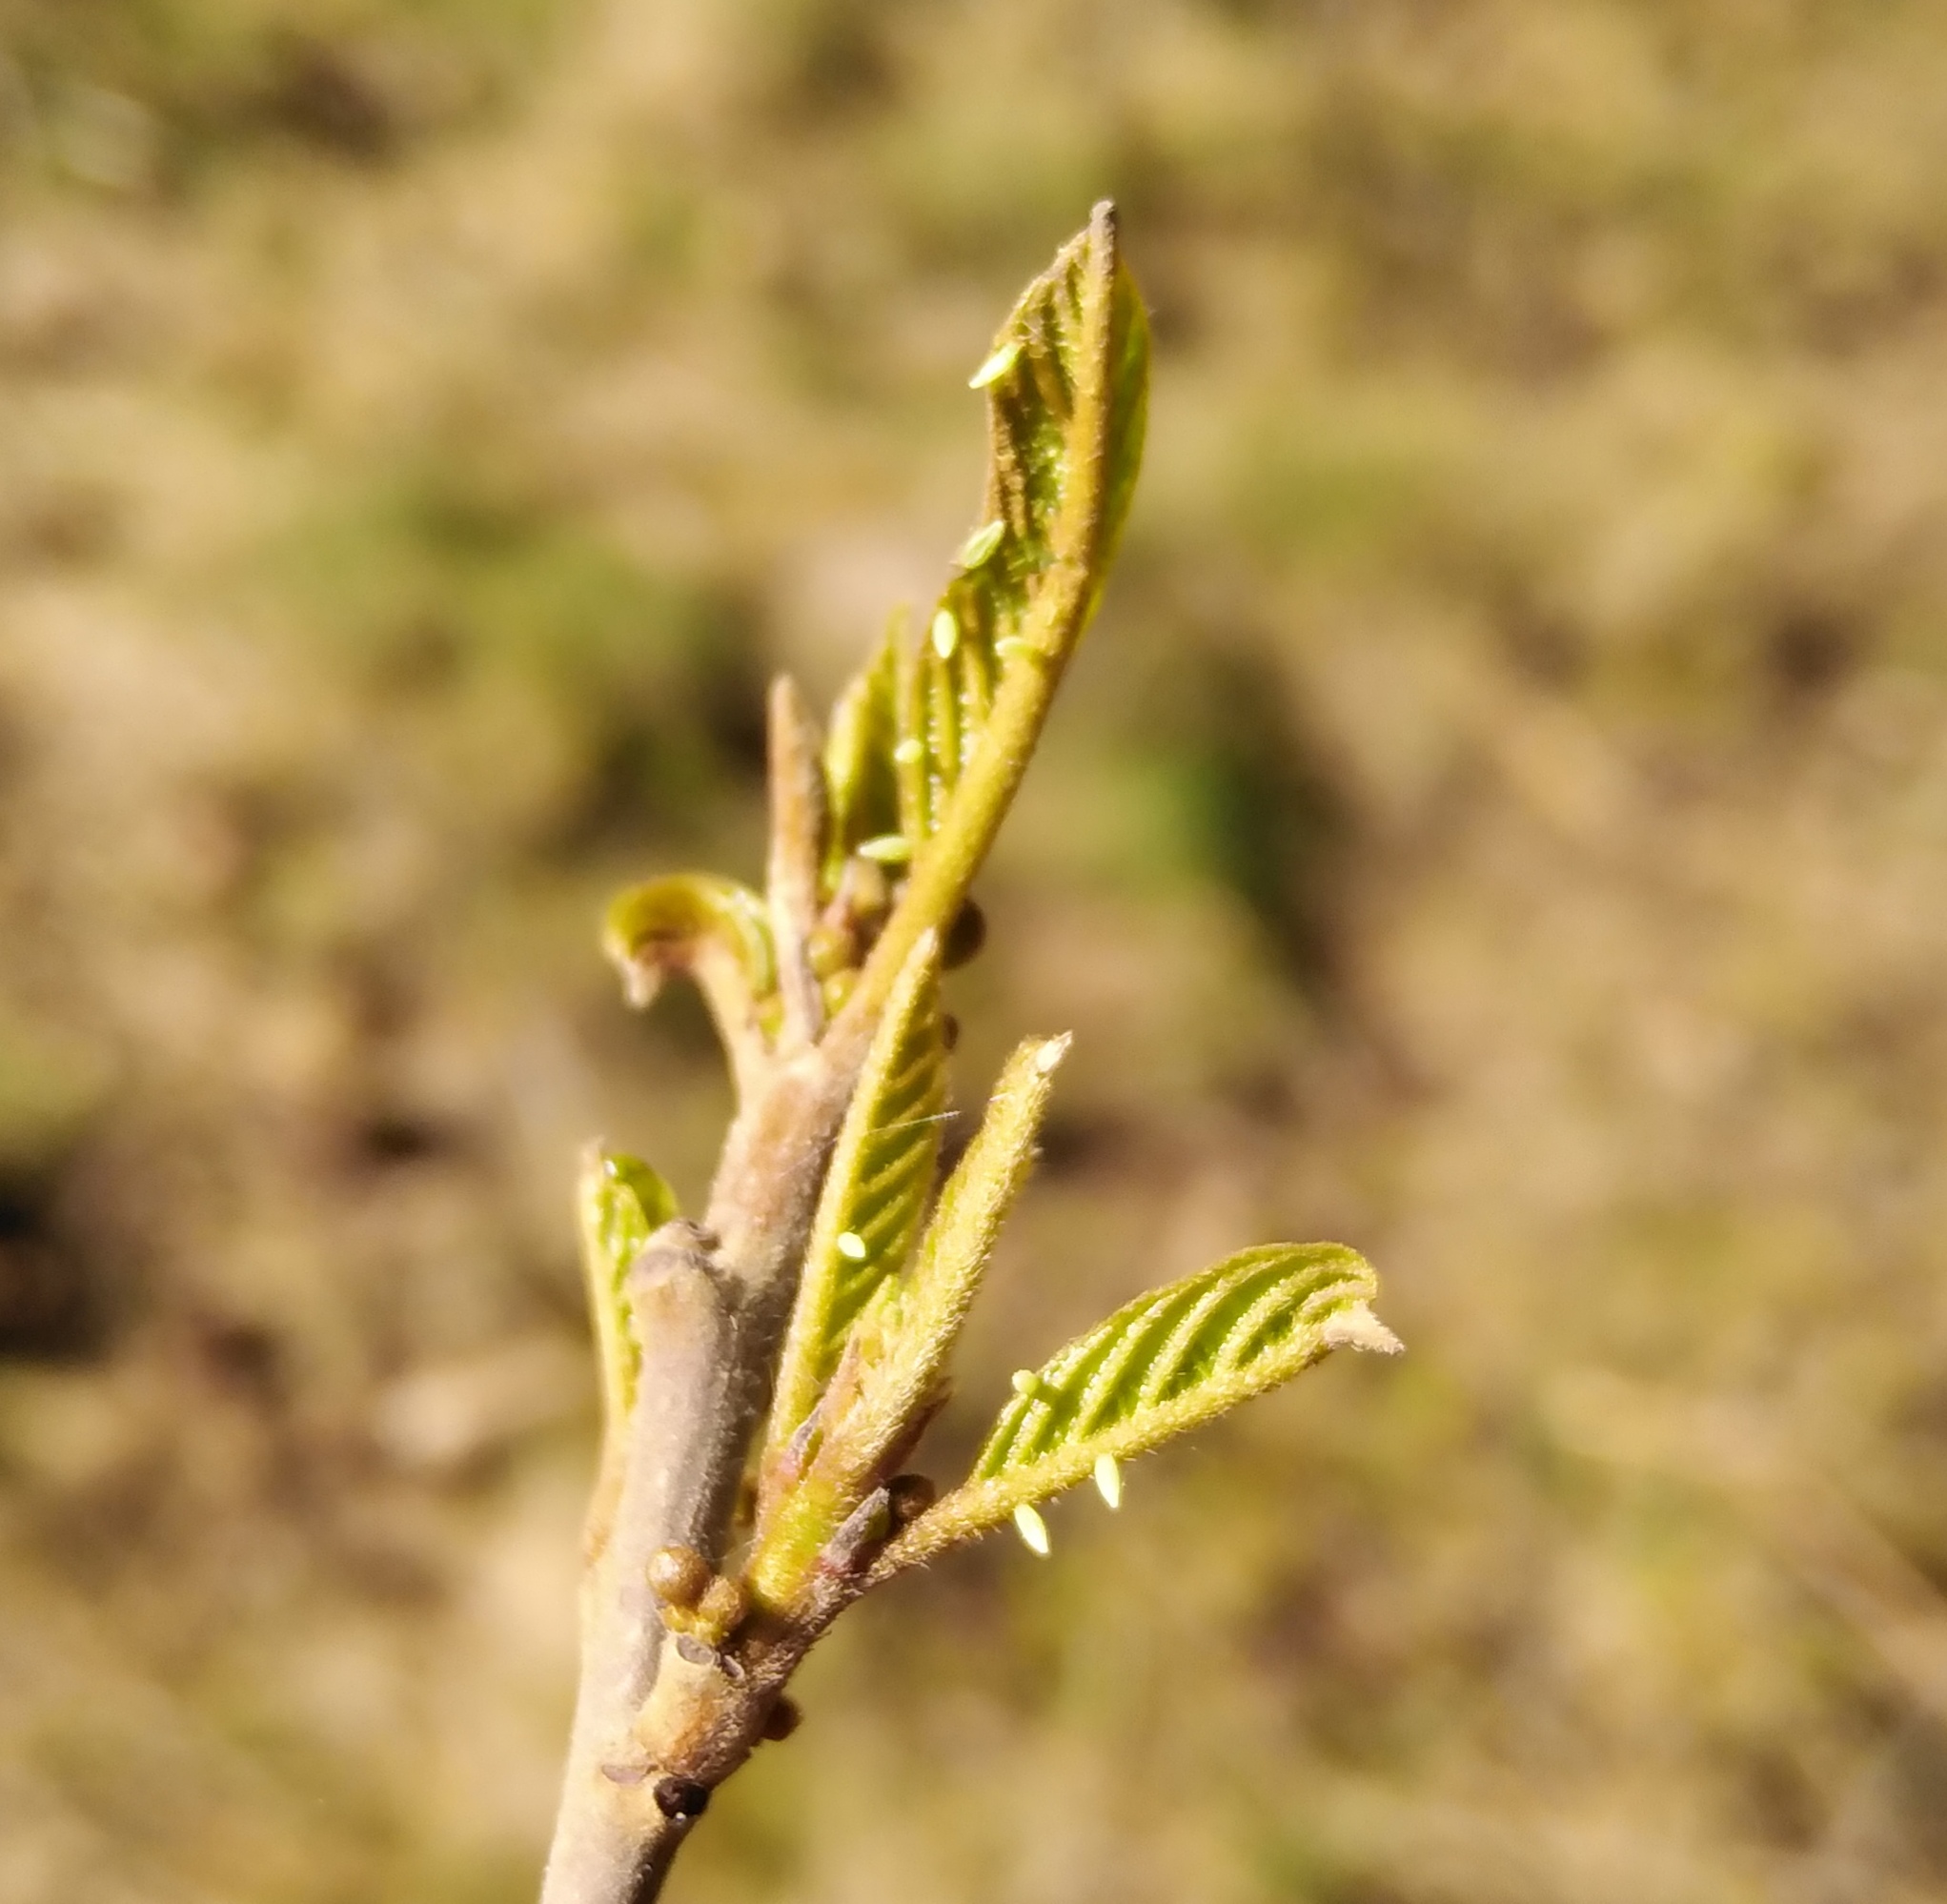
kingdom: Animalia
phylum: Arthropoda
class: Insecta
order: Lepidoptera
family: Pieridae
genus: Gonepteryx
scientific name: Gonepteryx rhamni
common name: Brimstone
